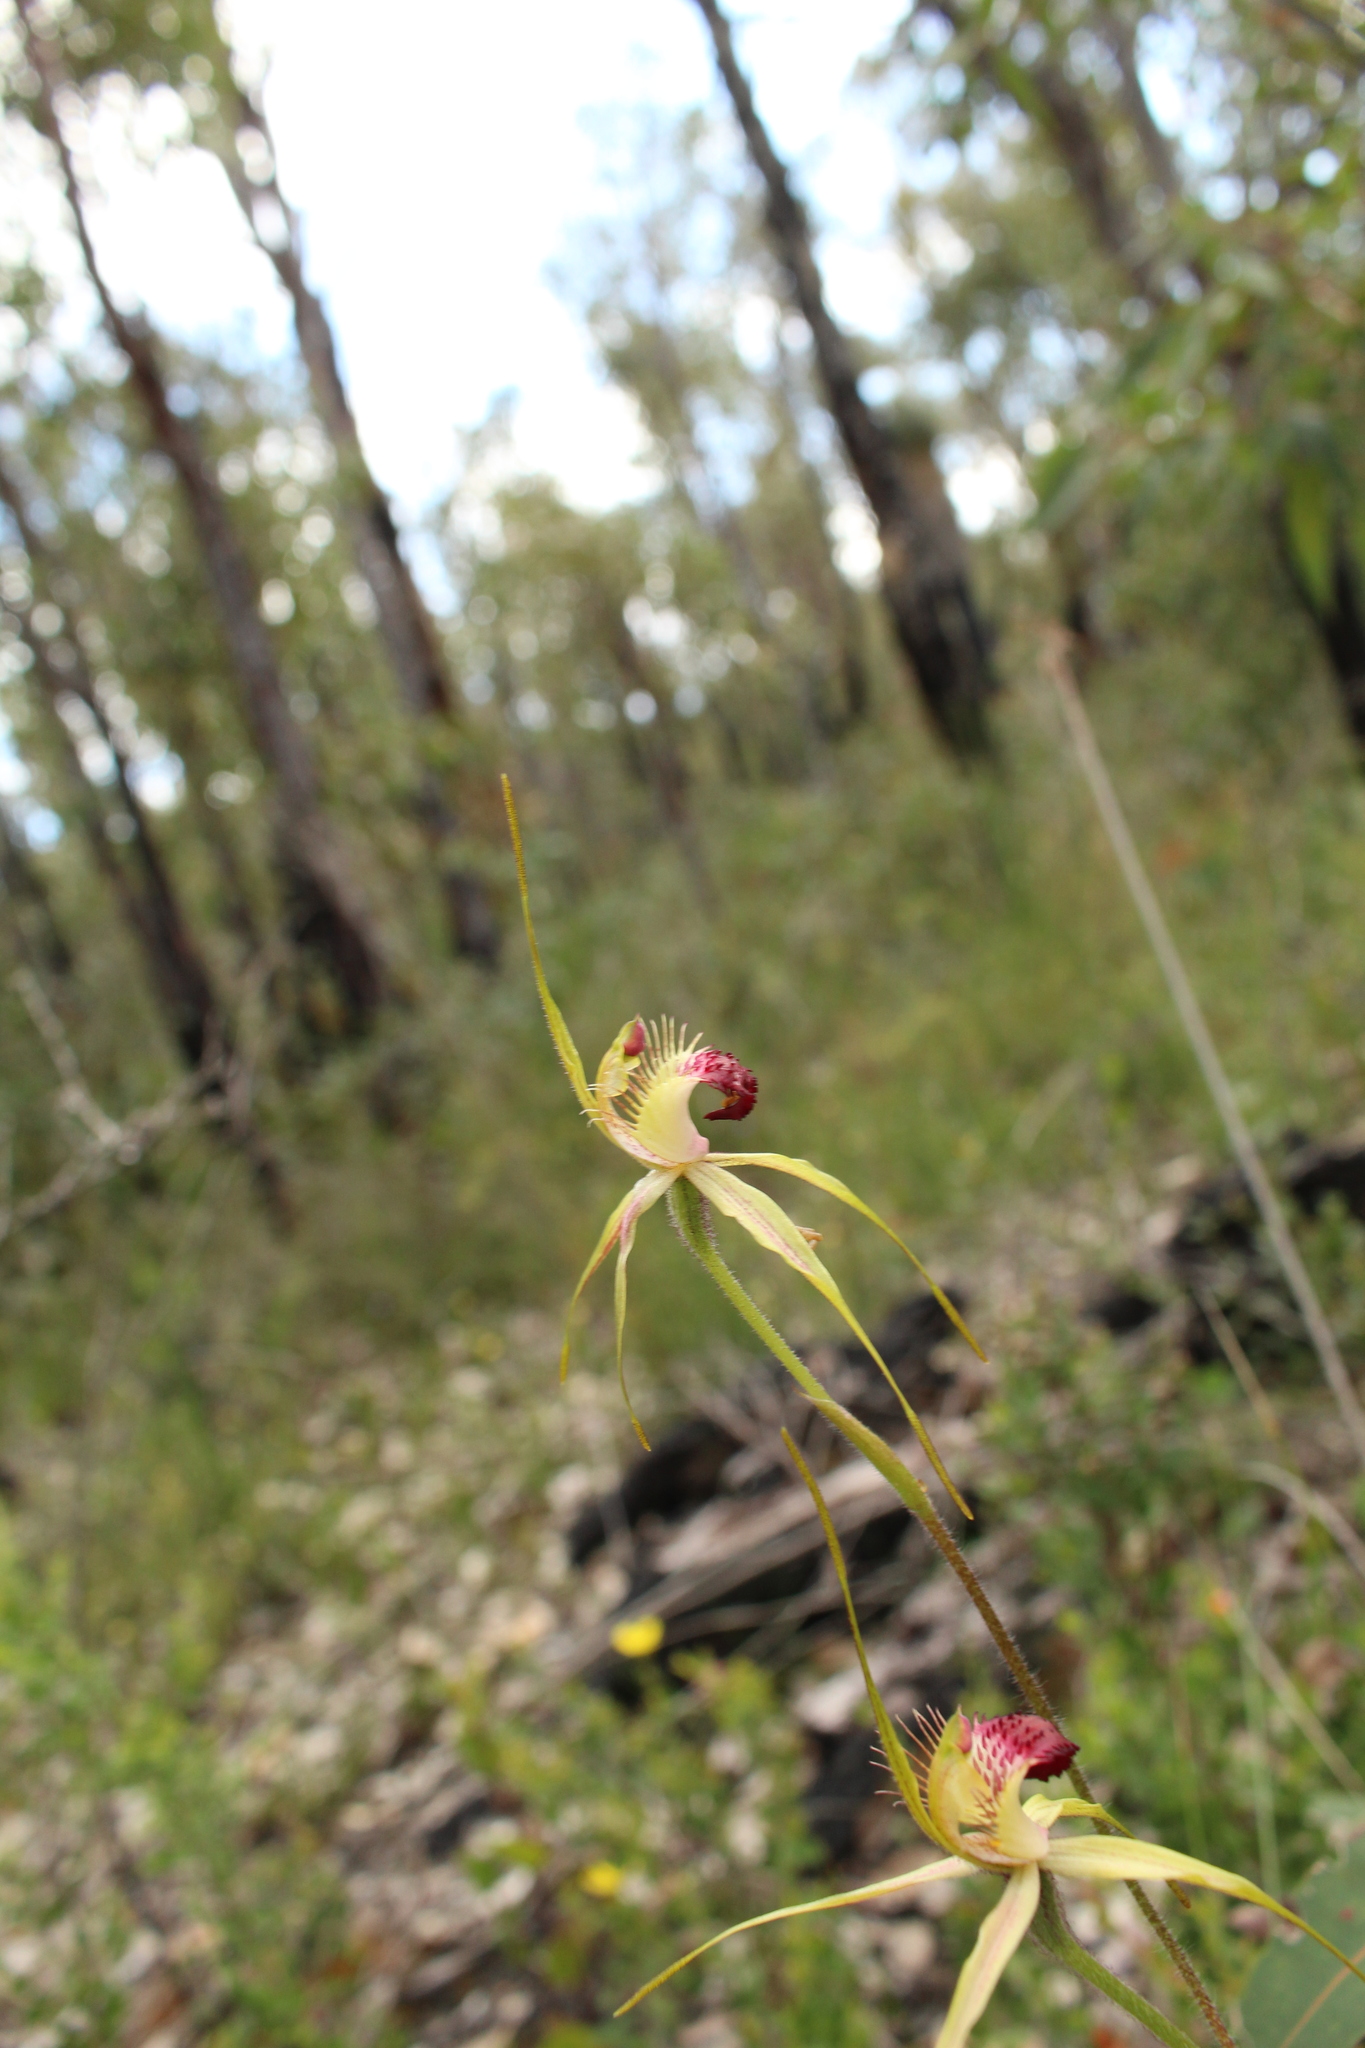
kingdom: Plantae
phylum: Tracheophyta
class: Liliopsida
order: Asparagales
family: Orchidaceae
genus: Caladenia
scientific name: Caladenia brownii
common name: Kari spider orchid
